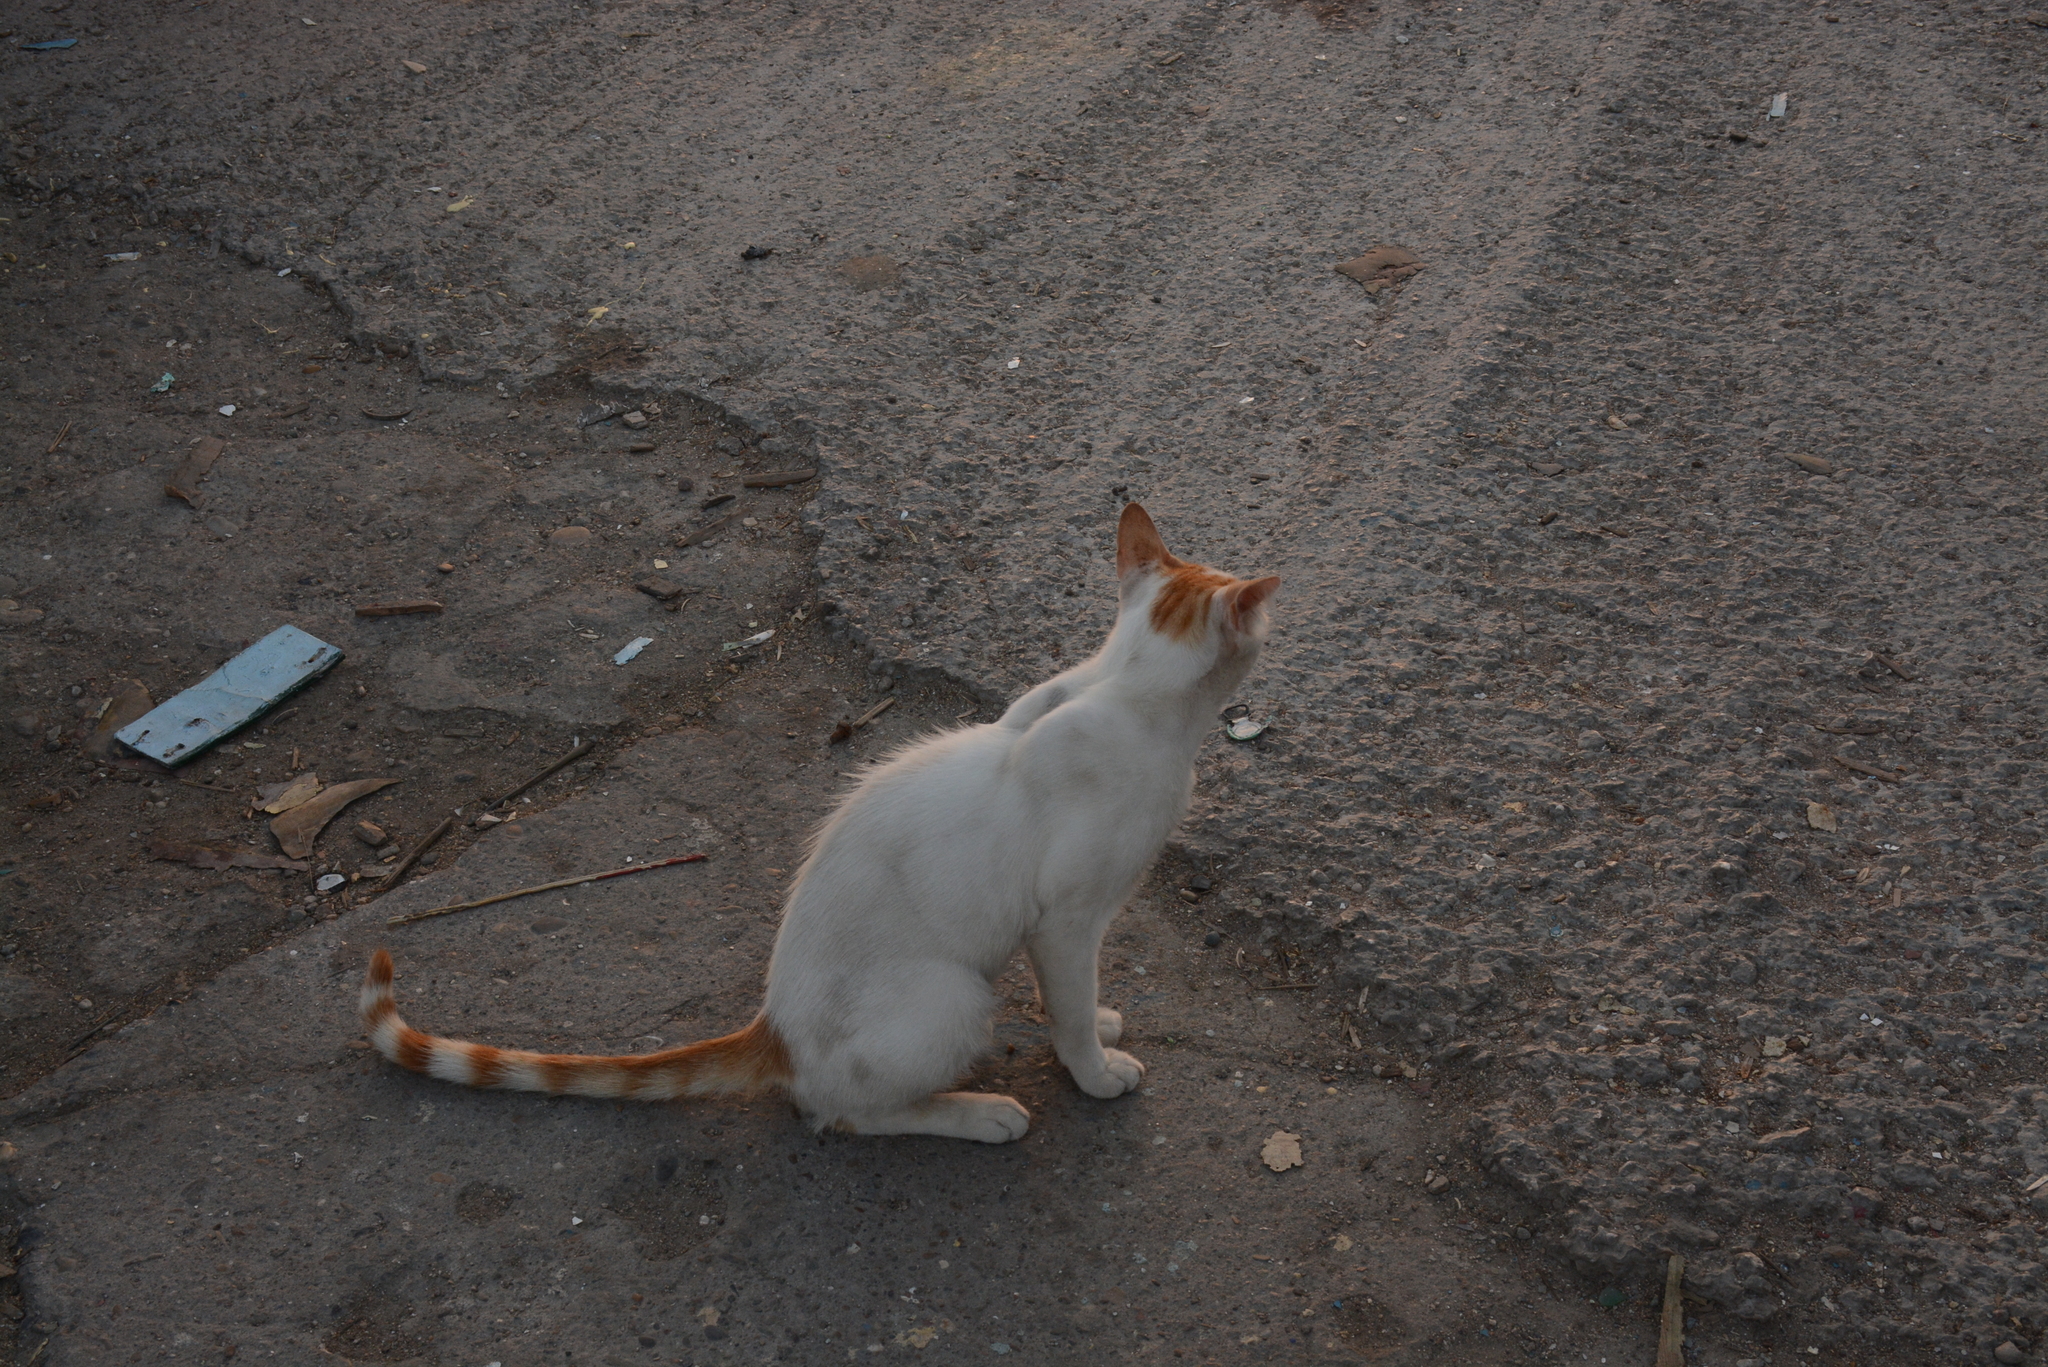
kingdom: Animalia
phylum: Chordata
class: Mammalia
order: Carnivora
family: Felidae
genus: Felis
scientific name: Felis catus
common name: Domestic cat
